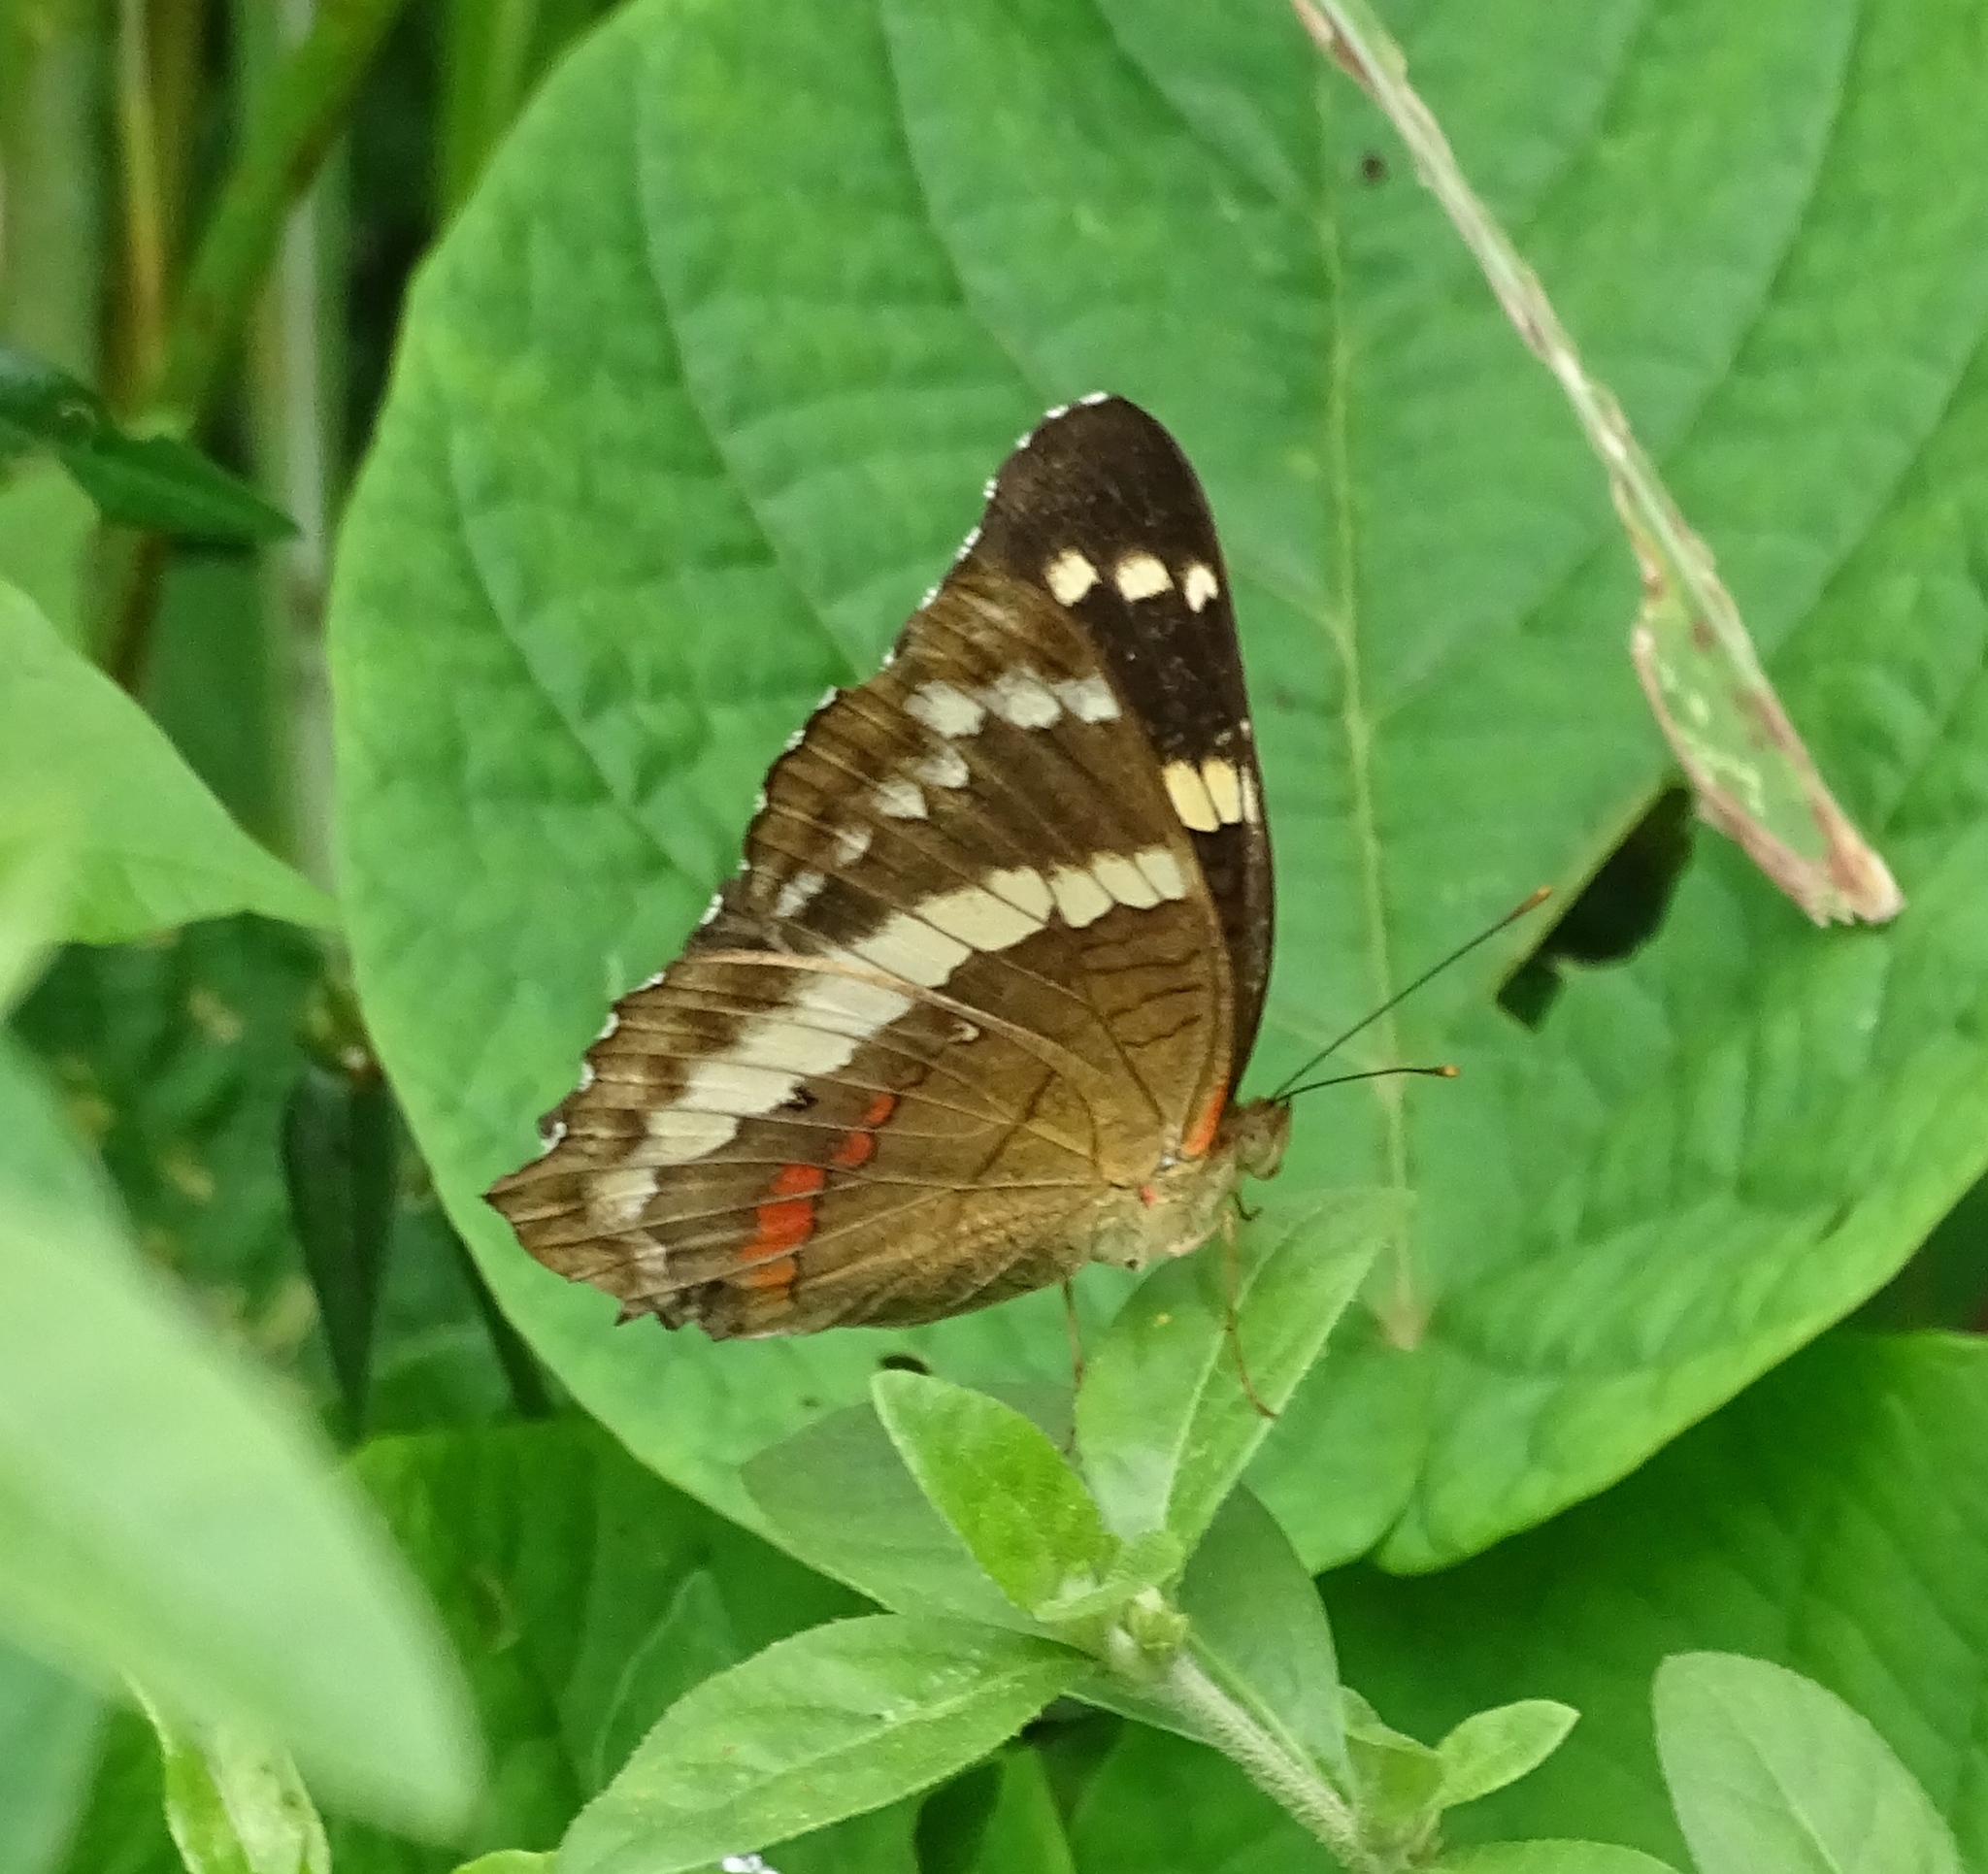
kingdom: Animalia
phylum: Arthropoda
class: Insecta
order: Lepidoptera
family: Nymphalidae
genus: Anartia
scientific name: Anartia fatima
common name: Banded peacock
